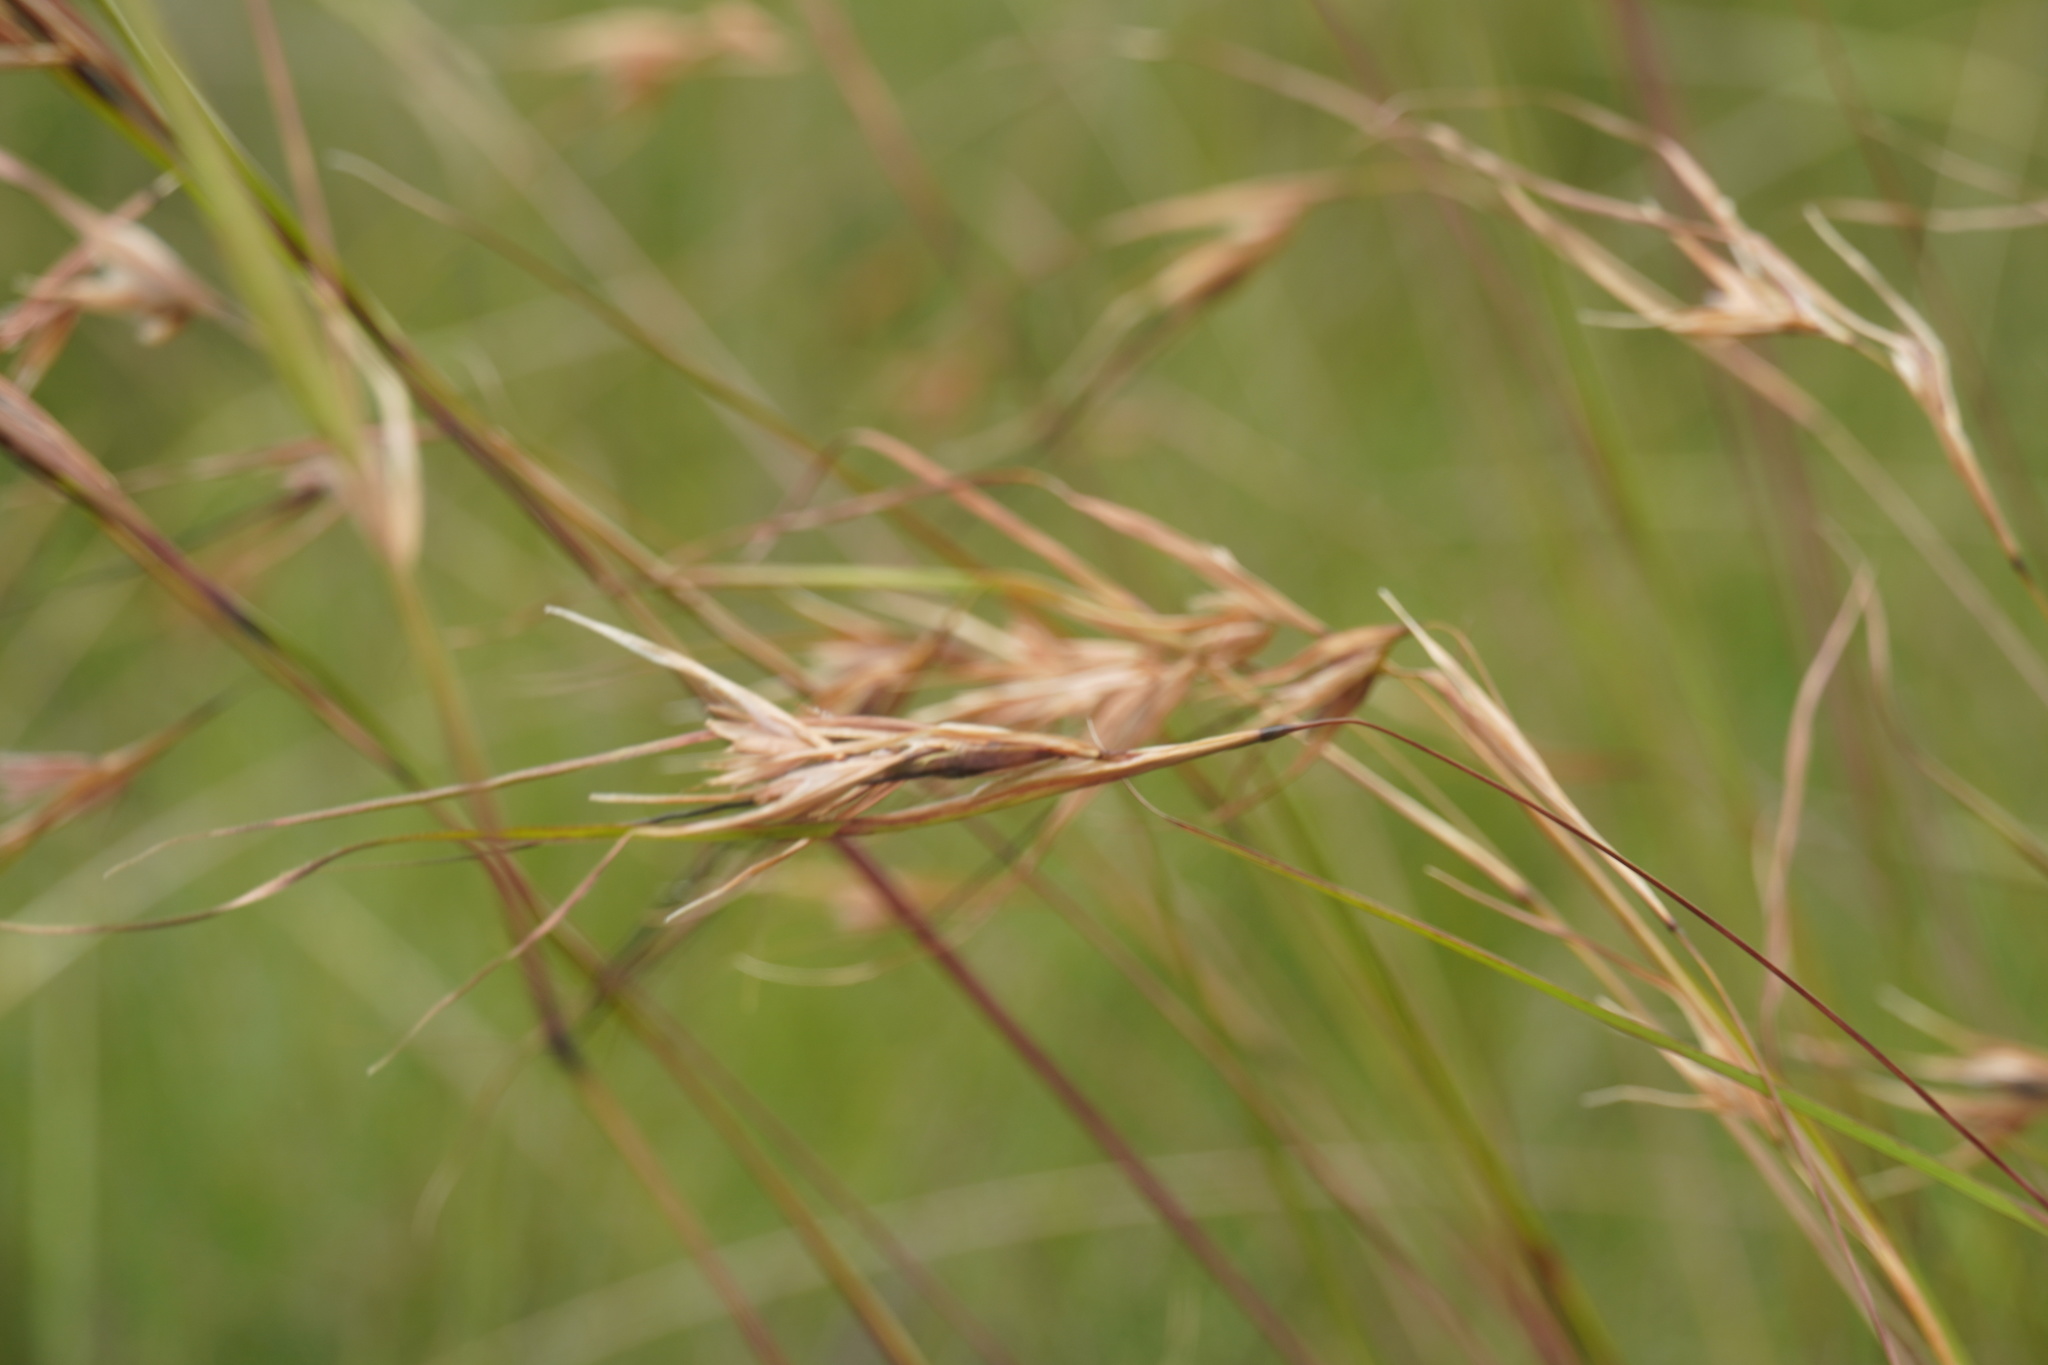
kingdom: Plantae
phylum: Tracheophyta
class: Liliopsida
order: Poales
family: Poaceae
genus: Themeda
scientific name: Themeda triandra
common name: Kangaroo grass
